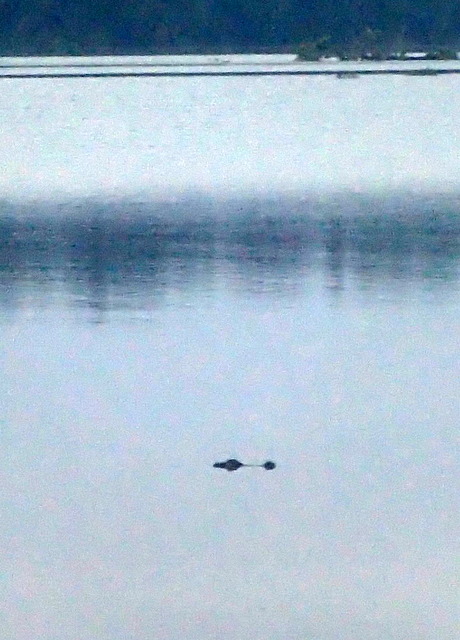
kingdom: Animalia
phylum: Chordata
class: Crocodylia
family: Alligatoridae
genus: Alligator
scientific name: Alligator mississippiensis
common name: American alligator
